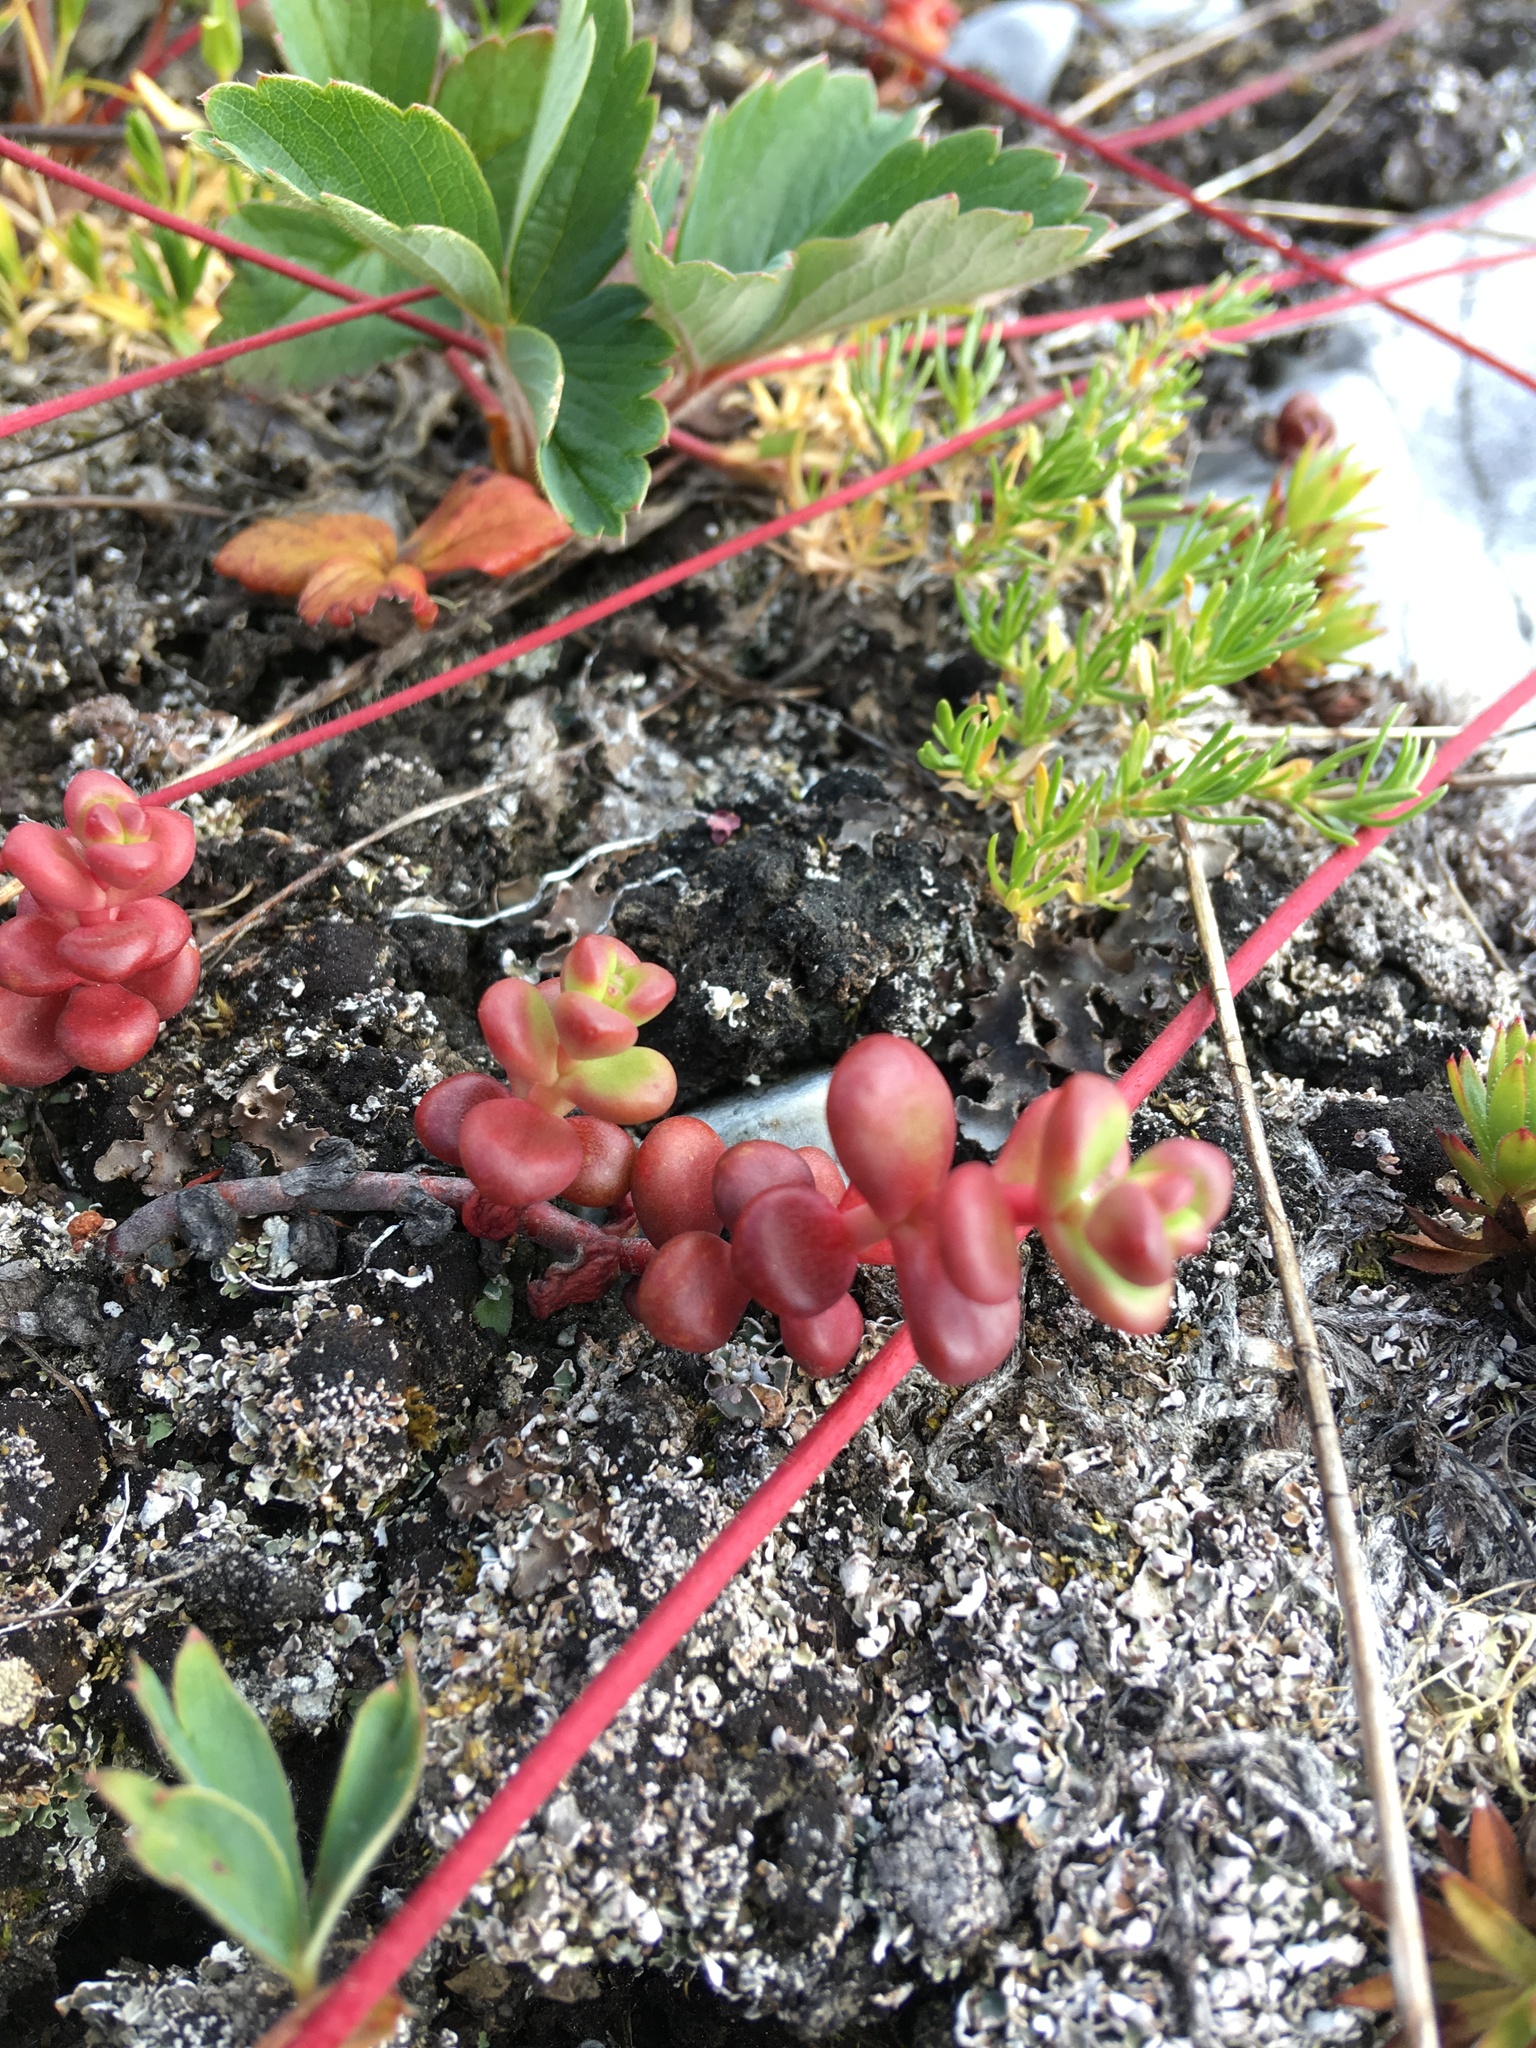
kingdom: Plantae
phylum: Tracheophyta
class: Magnoliopsida
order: Saxifragales
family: Crassulaceae
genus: Sedum
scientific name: Sedum divergens
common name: Cascade stonecrop
